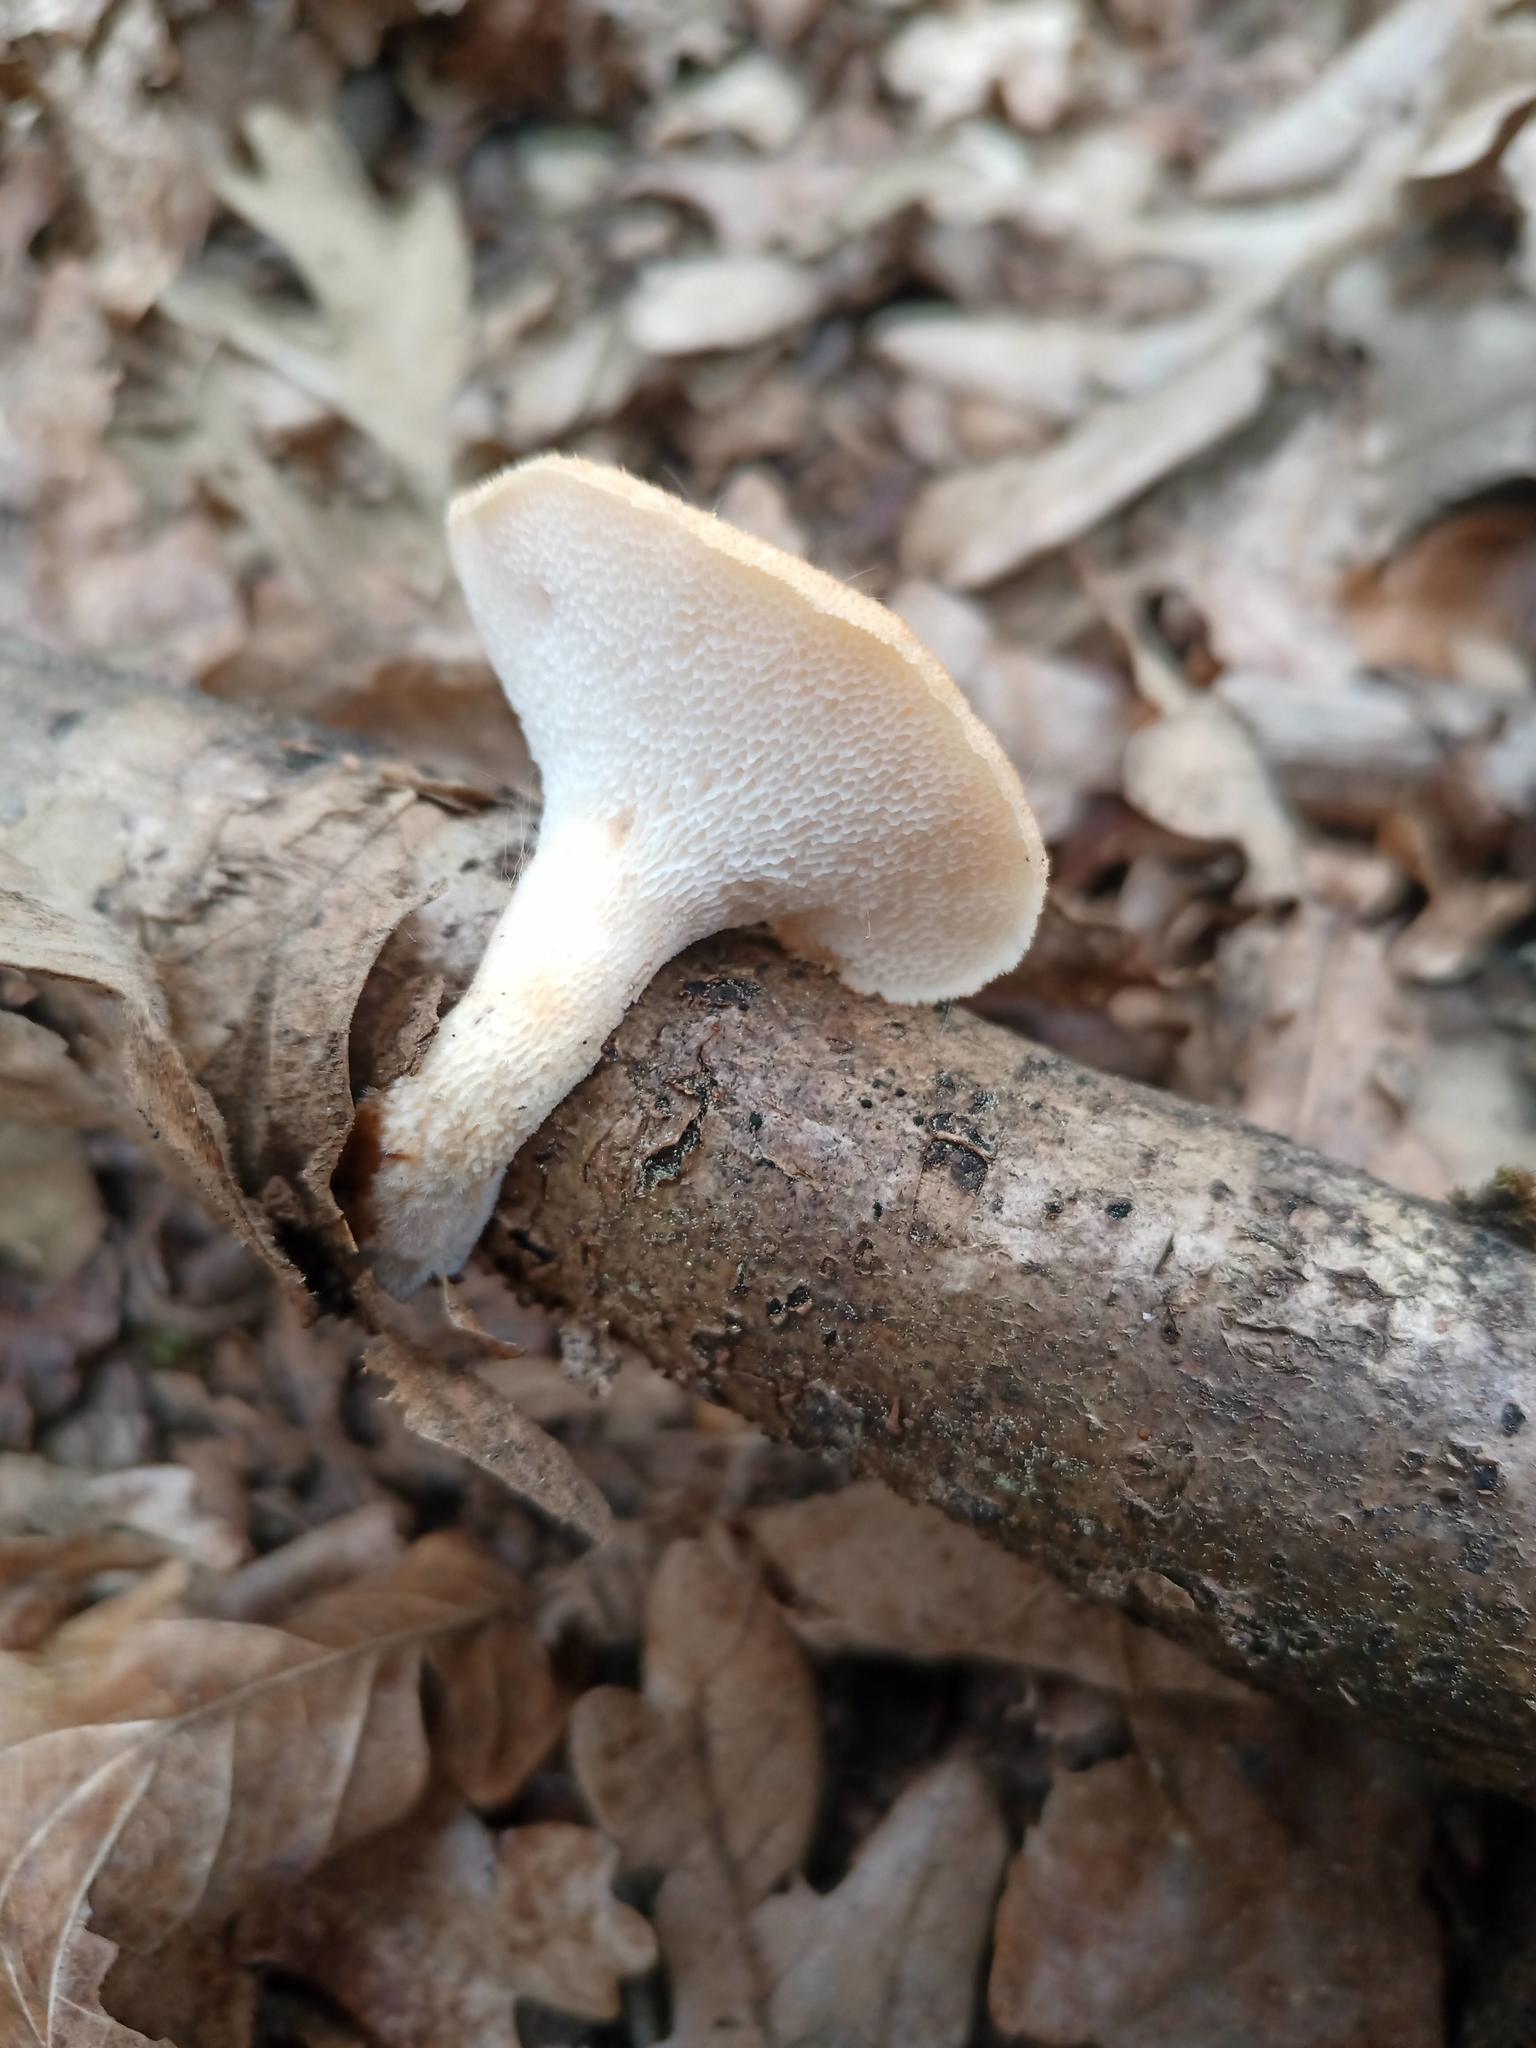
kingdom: Fungi
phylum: Basidiomycota
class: Agaricomycetes
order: Polyporales
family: Polyporaceae
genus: Polyporus
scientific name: Polyporus tuberaster
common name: Tuberous polypore
